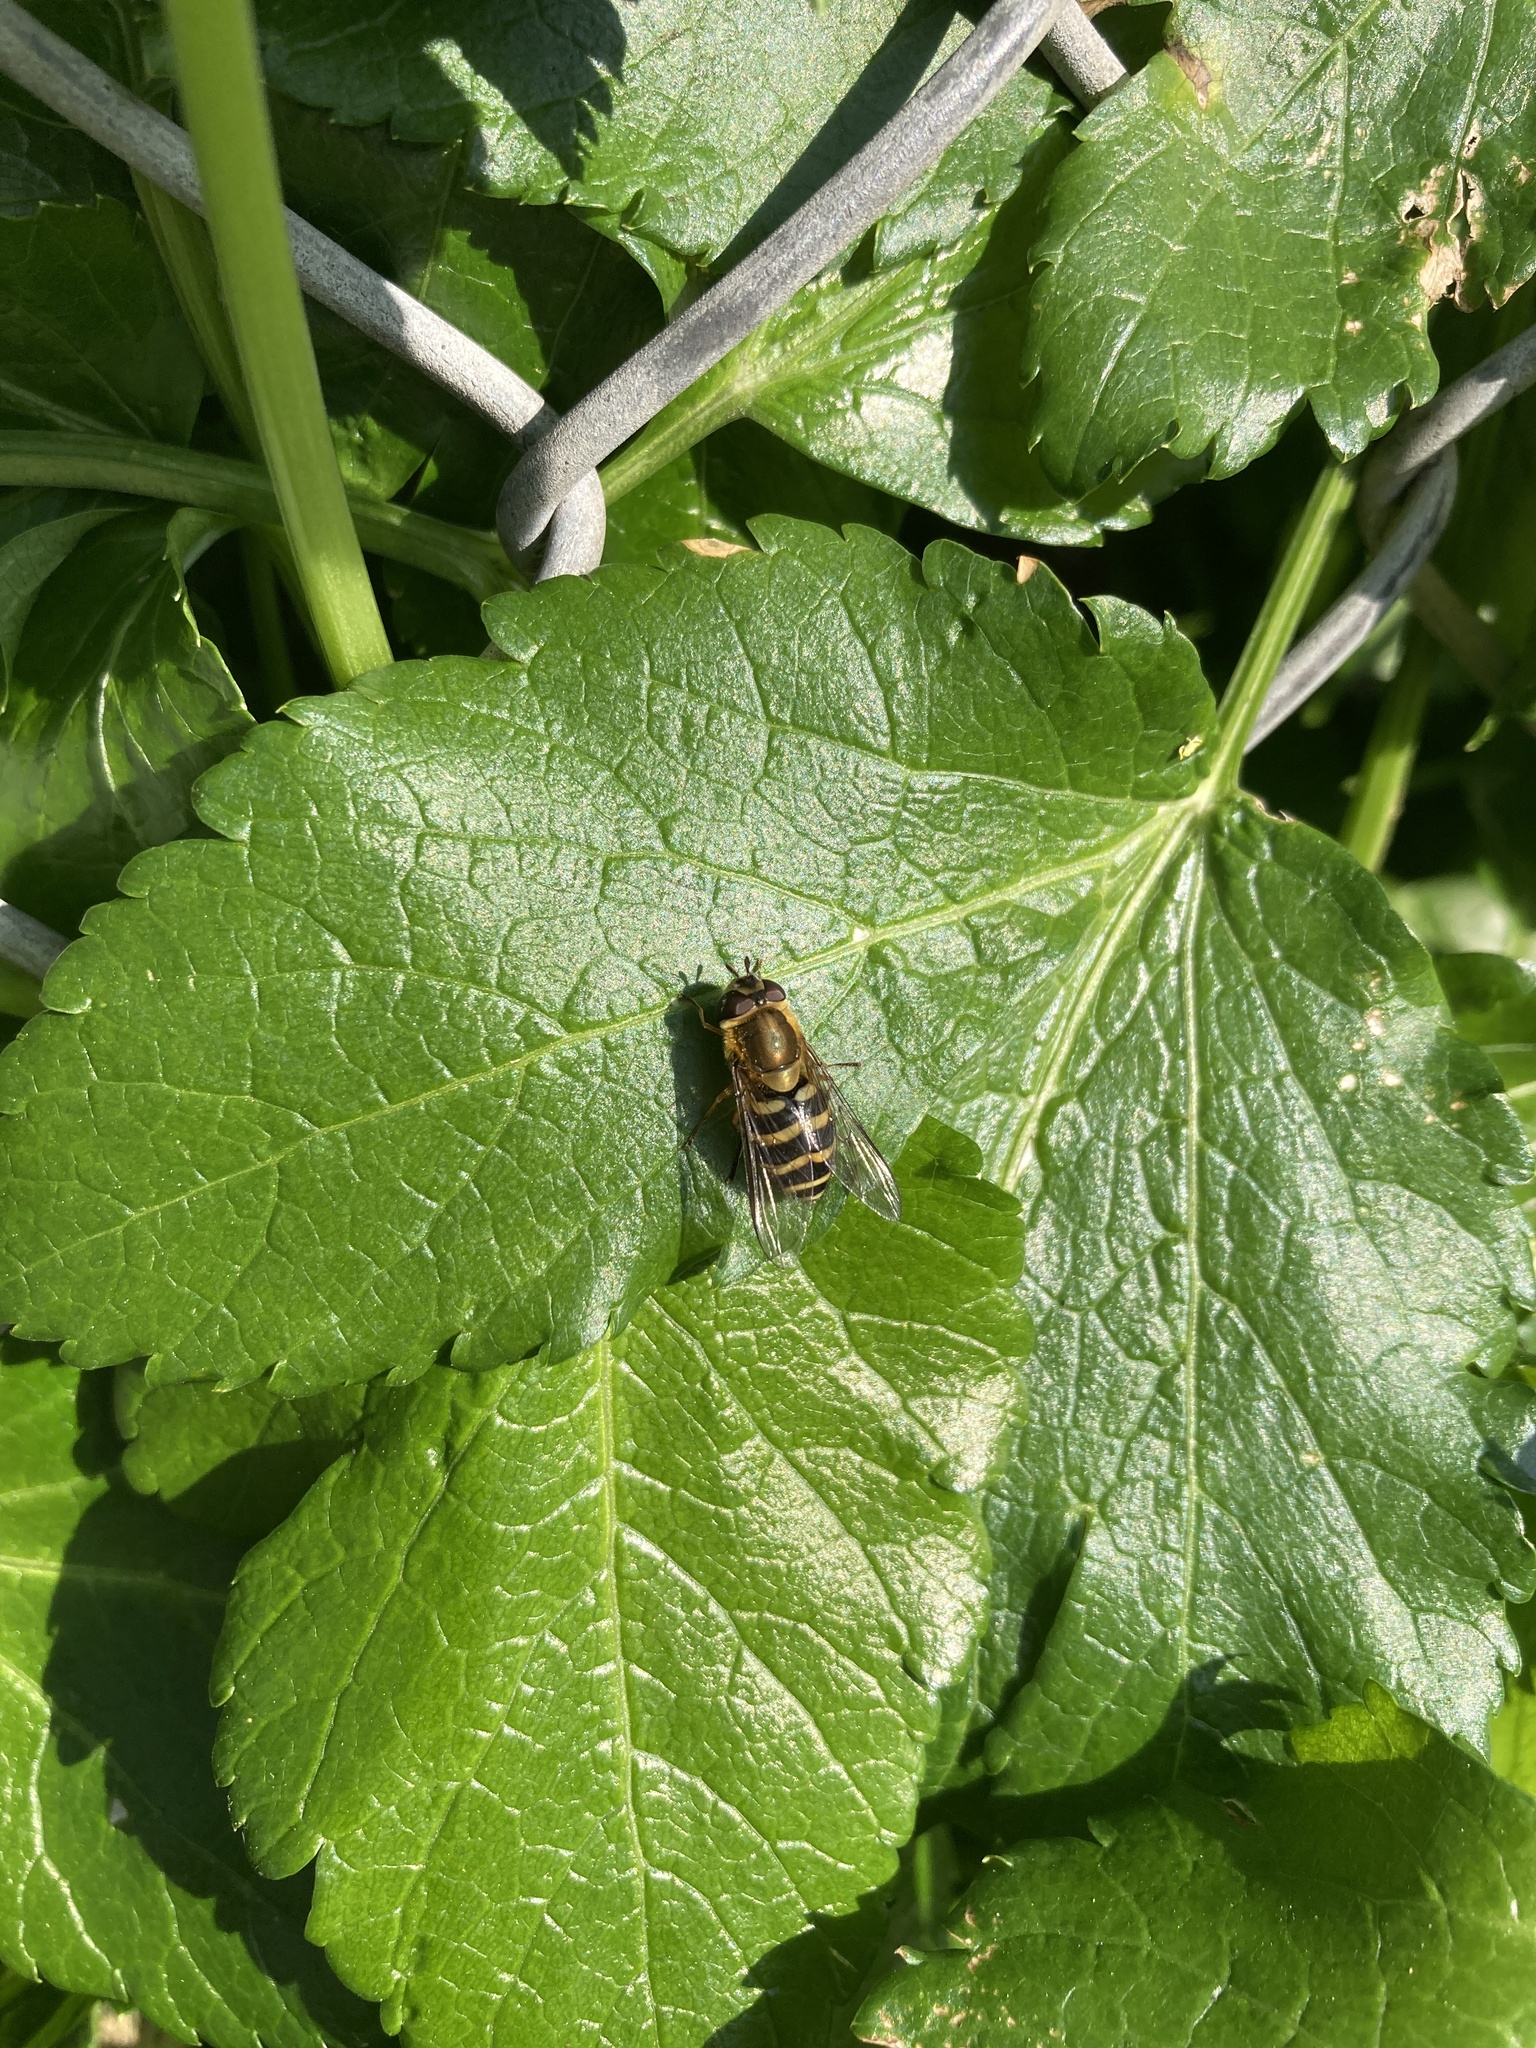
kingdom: Animalia
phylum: Arthropoda
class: Insecta
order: Diptera
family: Syrphidae
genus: Syrphus
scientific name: Syrphus
